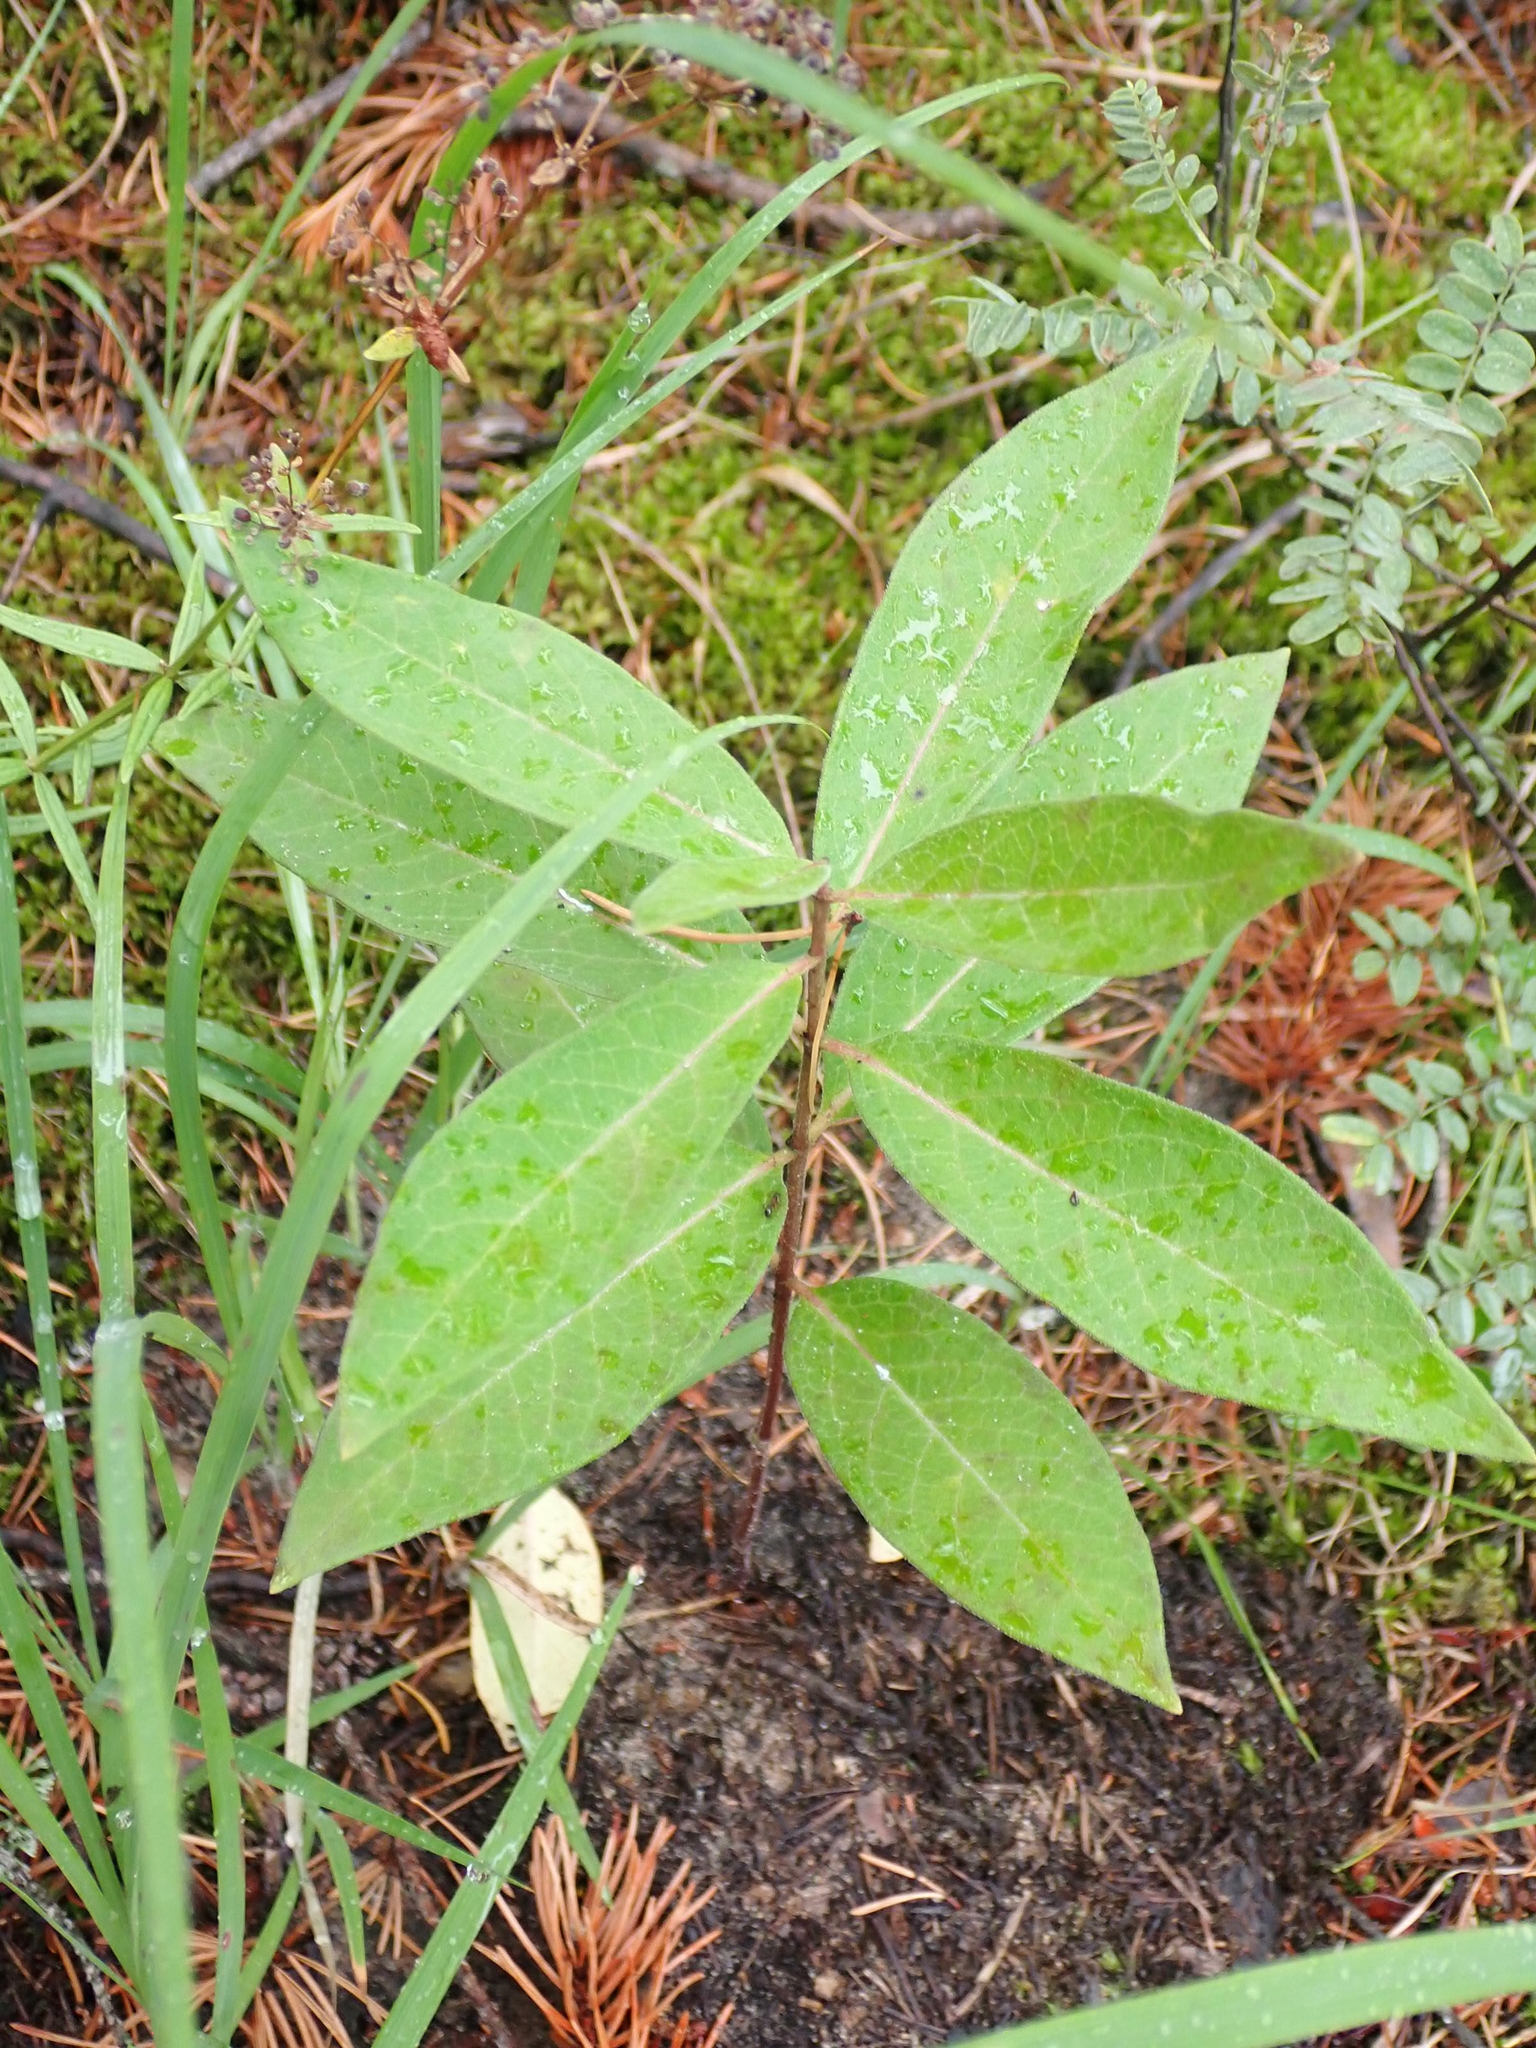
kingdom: Plantae
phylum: Tracheophyta
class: Magnoliopsida
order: Gentianales
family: Apocynaceae
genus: Asclepias
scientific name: Asclepias ovalifolia
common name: Dwarf milkweed
